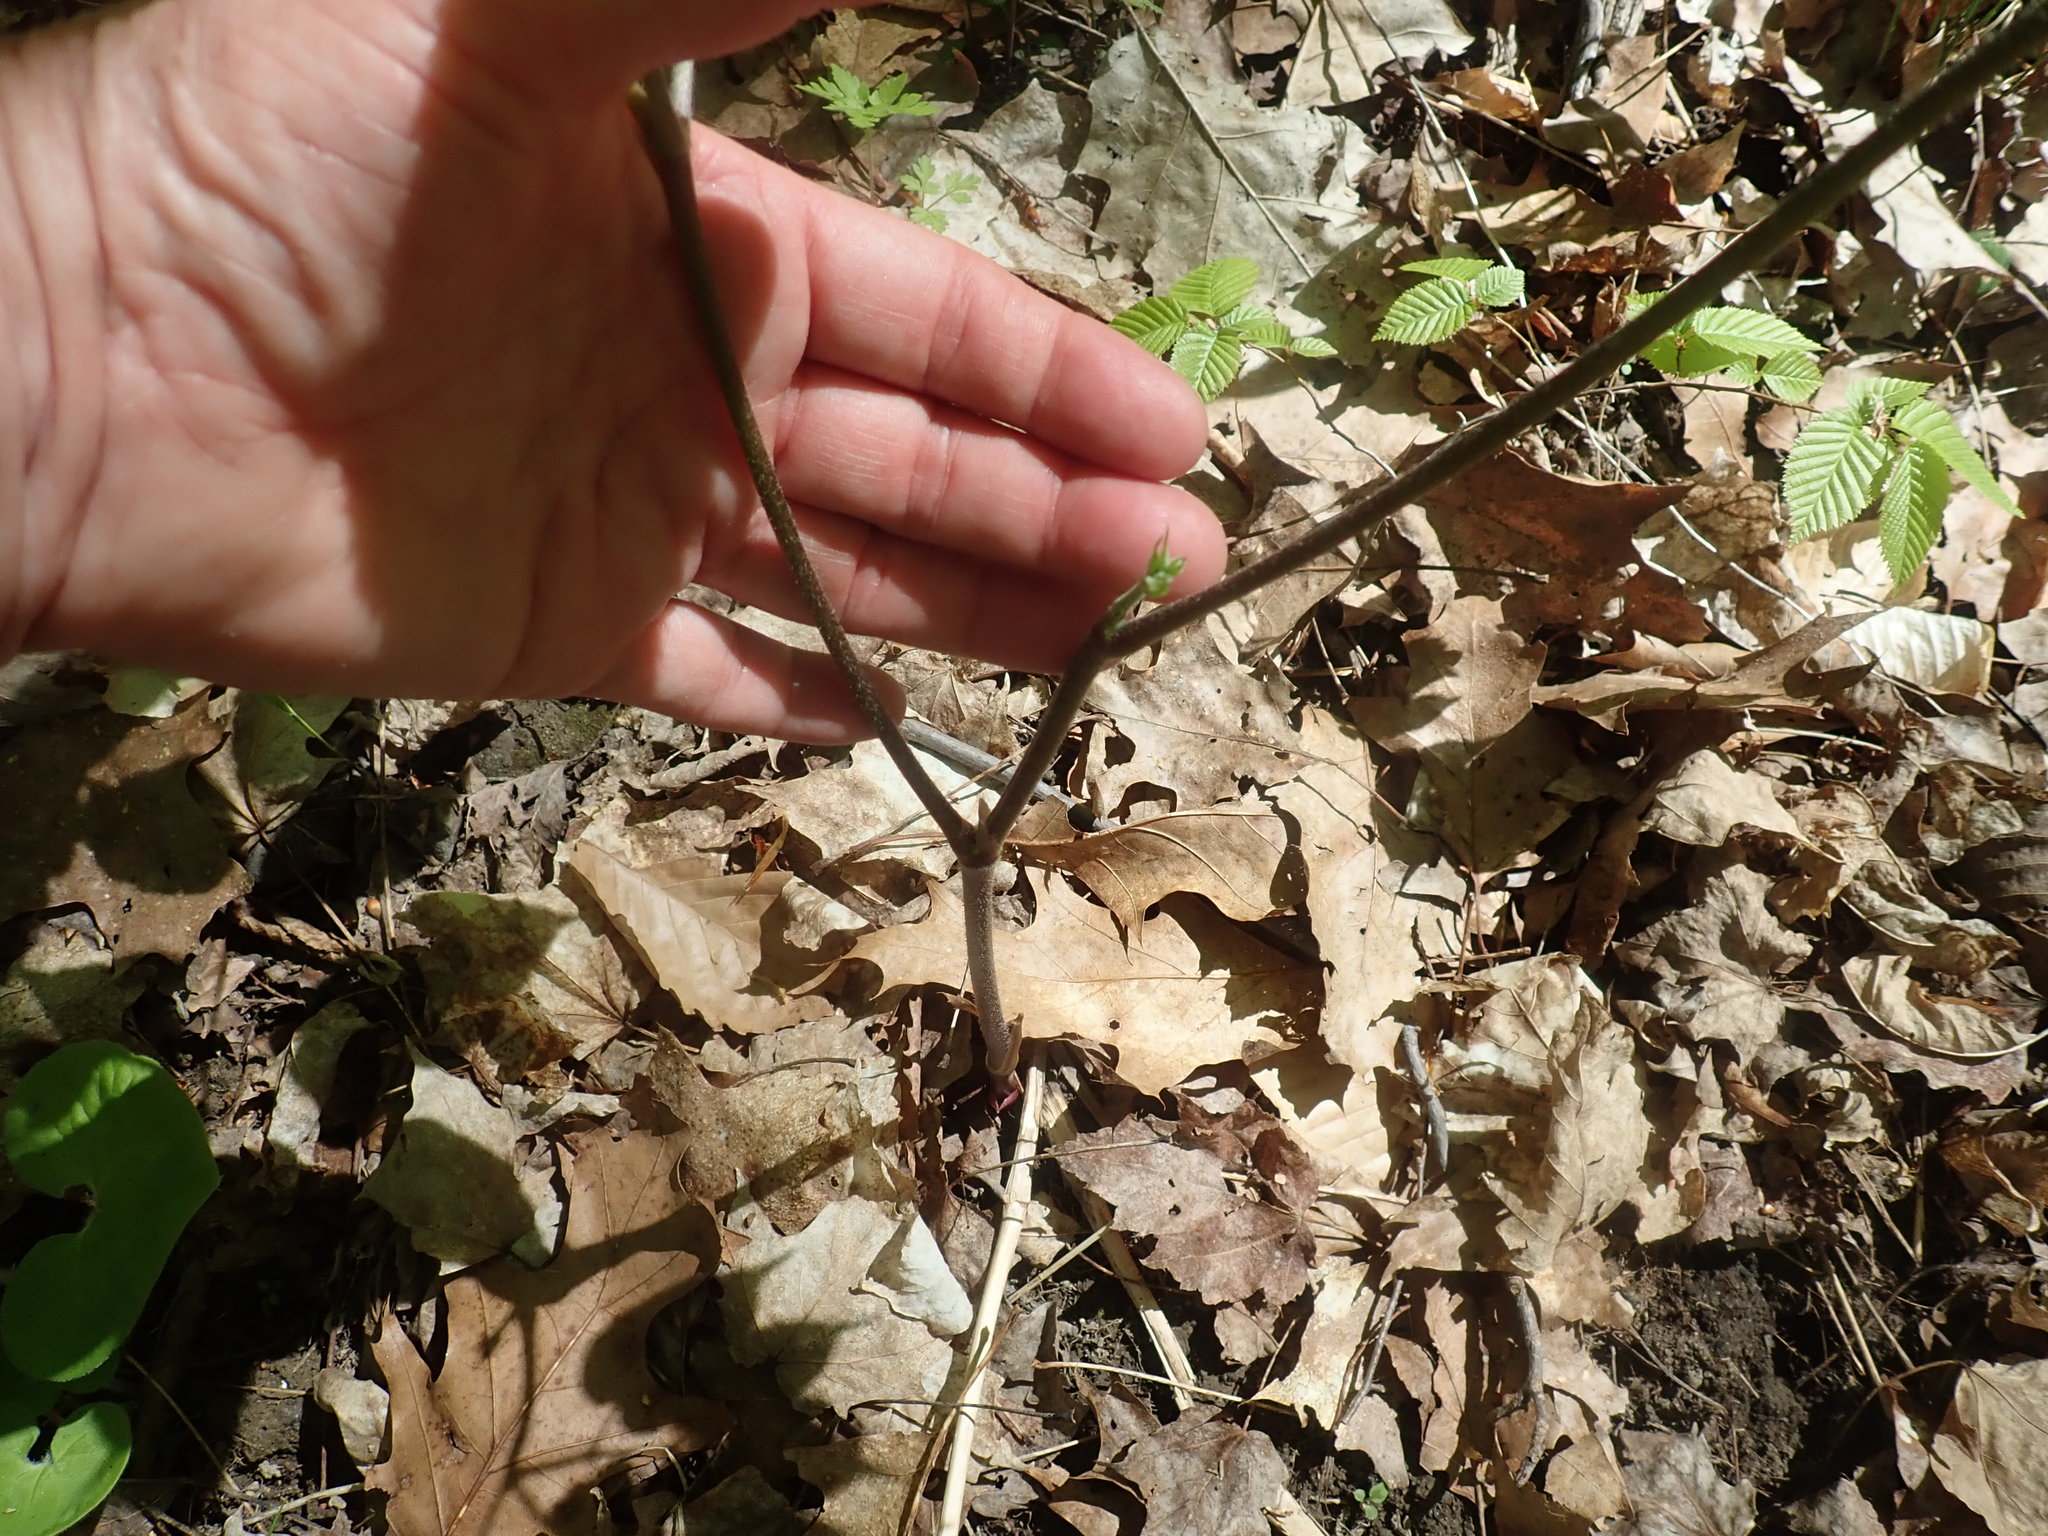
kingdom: Plantae
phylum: Tracheophyta
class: Magnoliopsida
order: Apiales
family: Araliaceae
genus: Aralia
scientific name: Aralia racemosa
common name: American-spikenard
